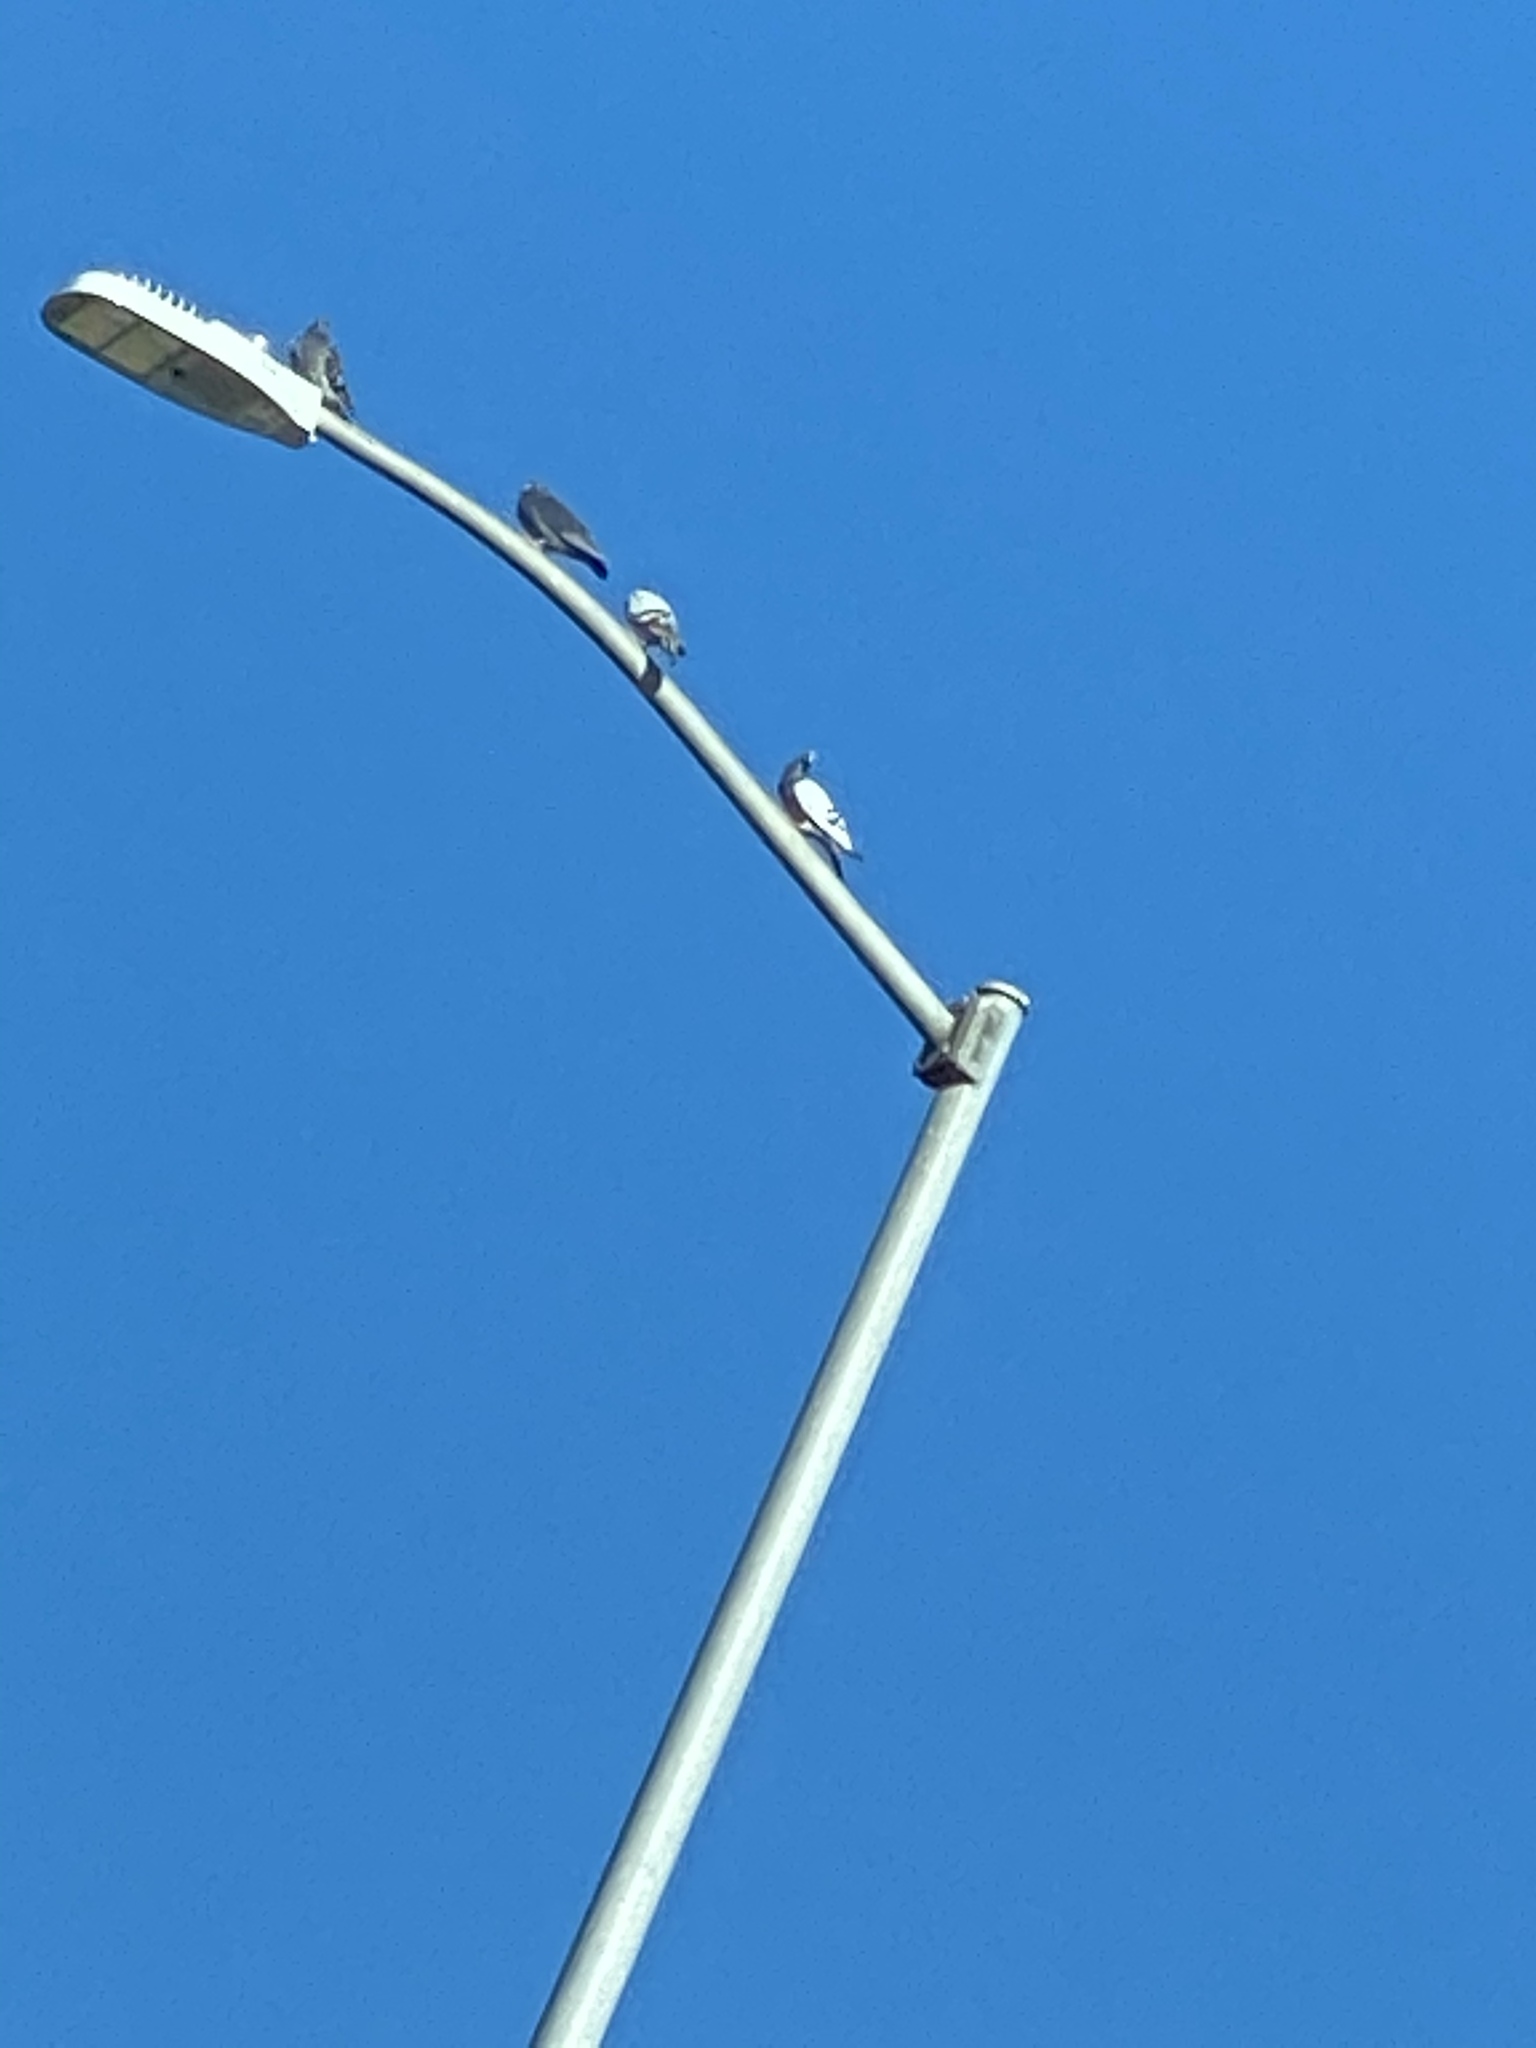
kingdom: Animalia
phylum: Chordata
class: Aves
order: Columbiformes
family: Columbidae
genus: Columba
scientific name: Columba livia
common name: Rock pigeon
